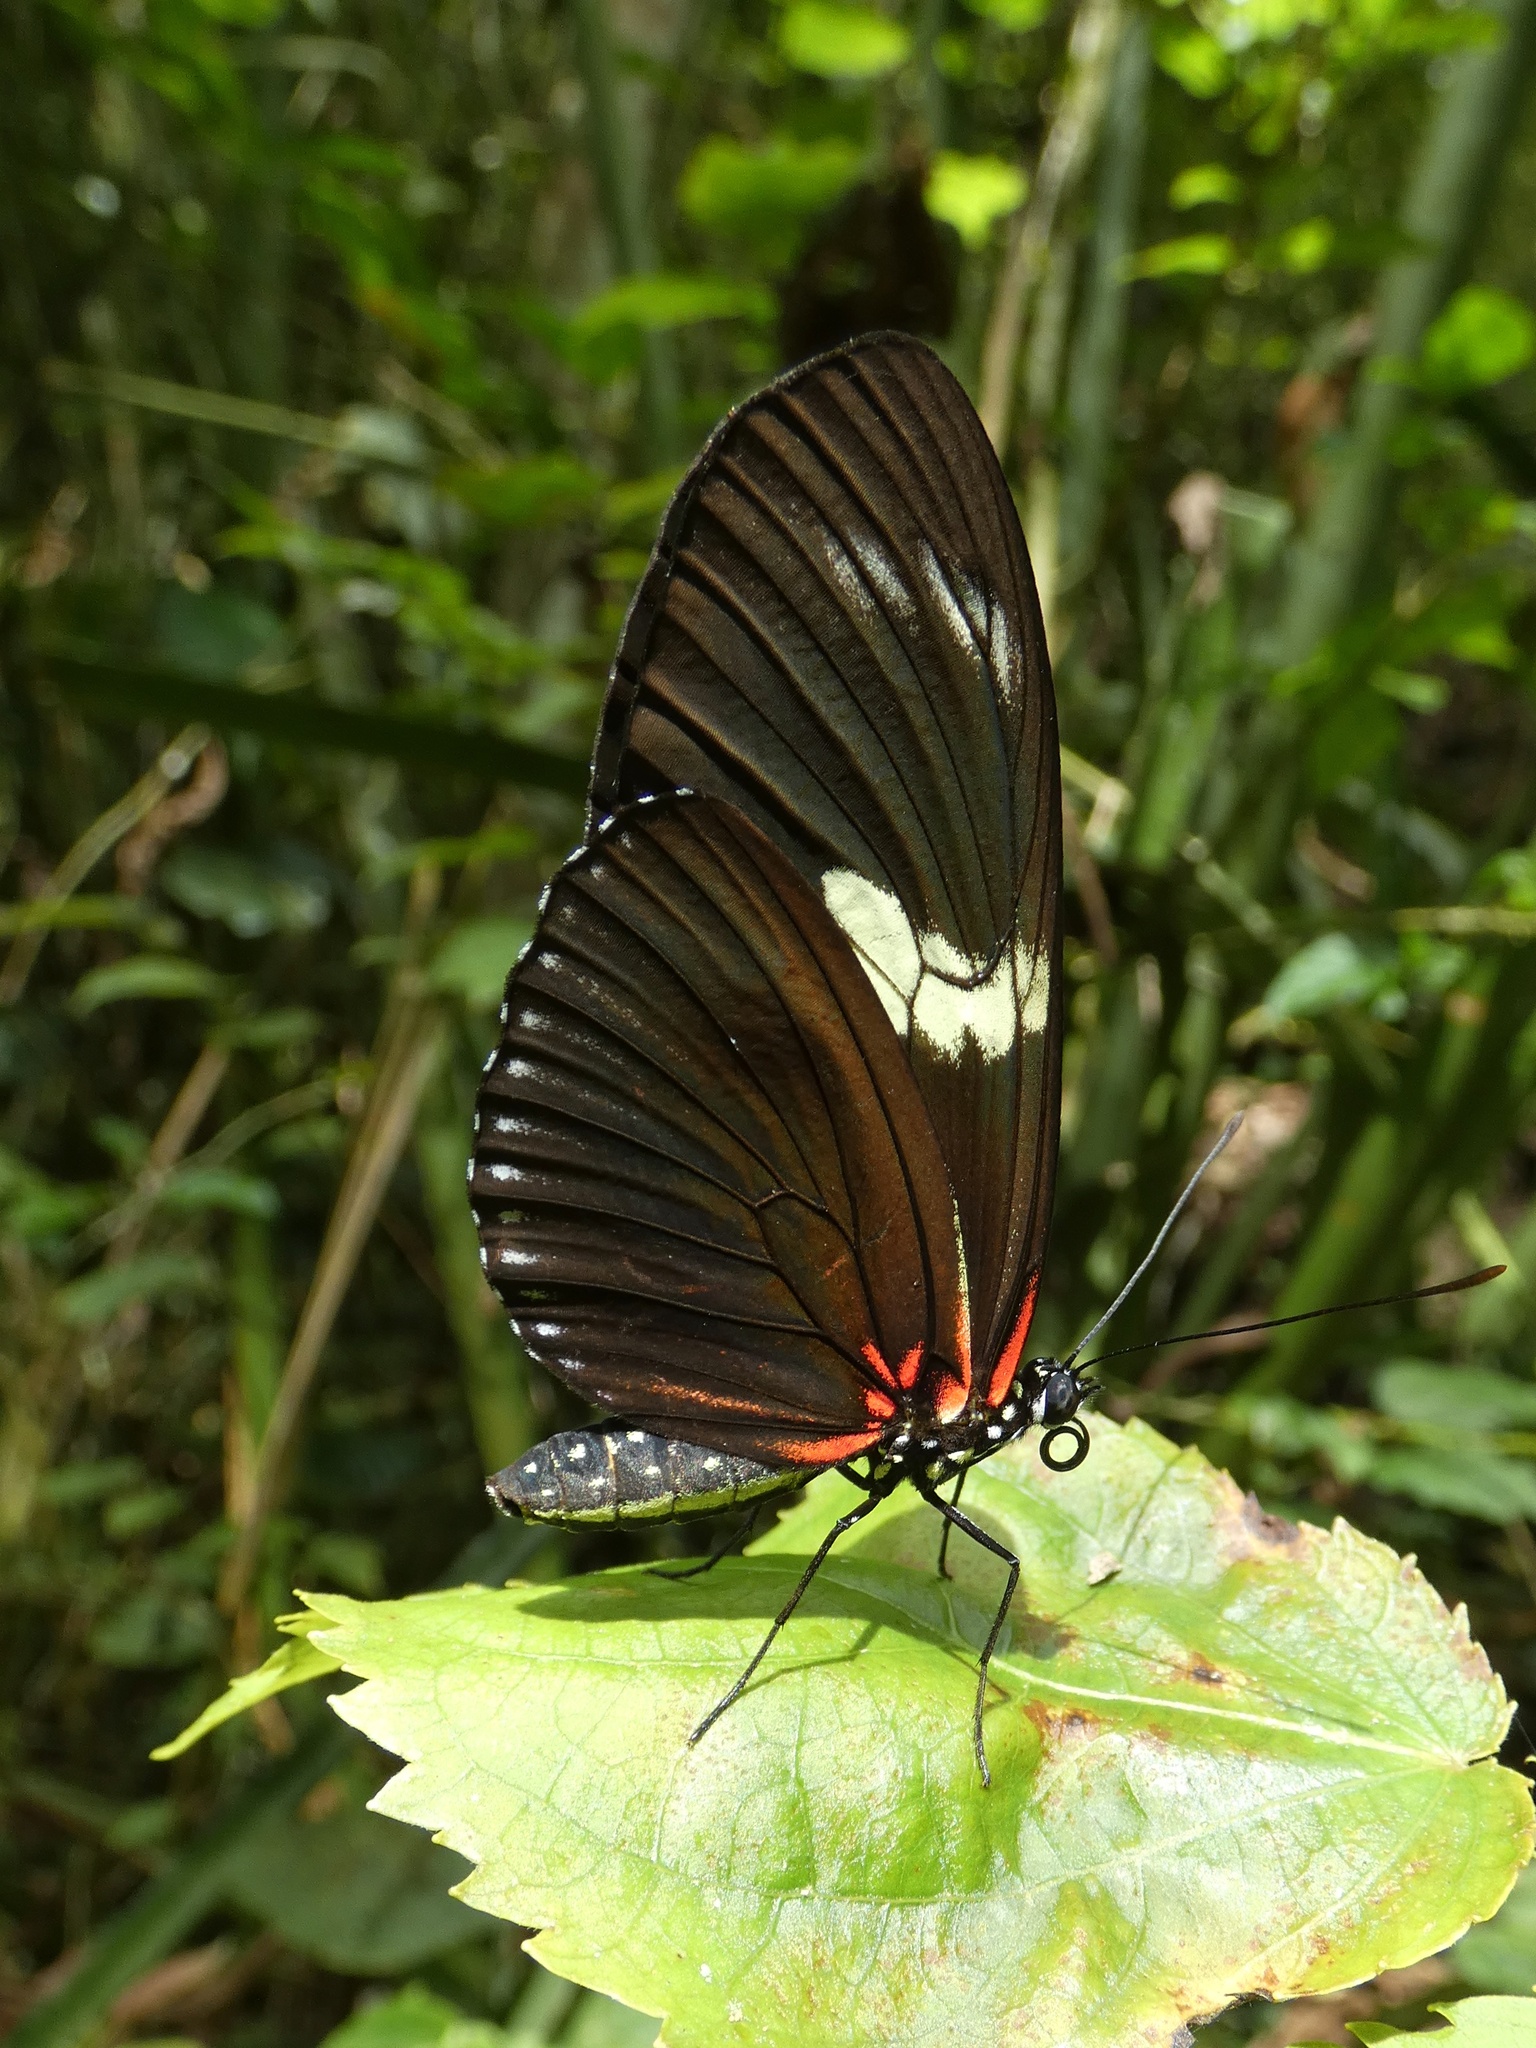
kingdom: Animalia
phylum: Arthropoda
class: Insecta
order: Lepidoptera
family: Nymphalidae
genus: Heliconius
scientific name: Heliconius doris
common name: Doris longwing
